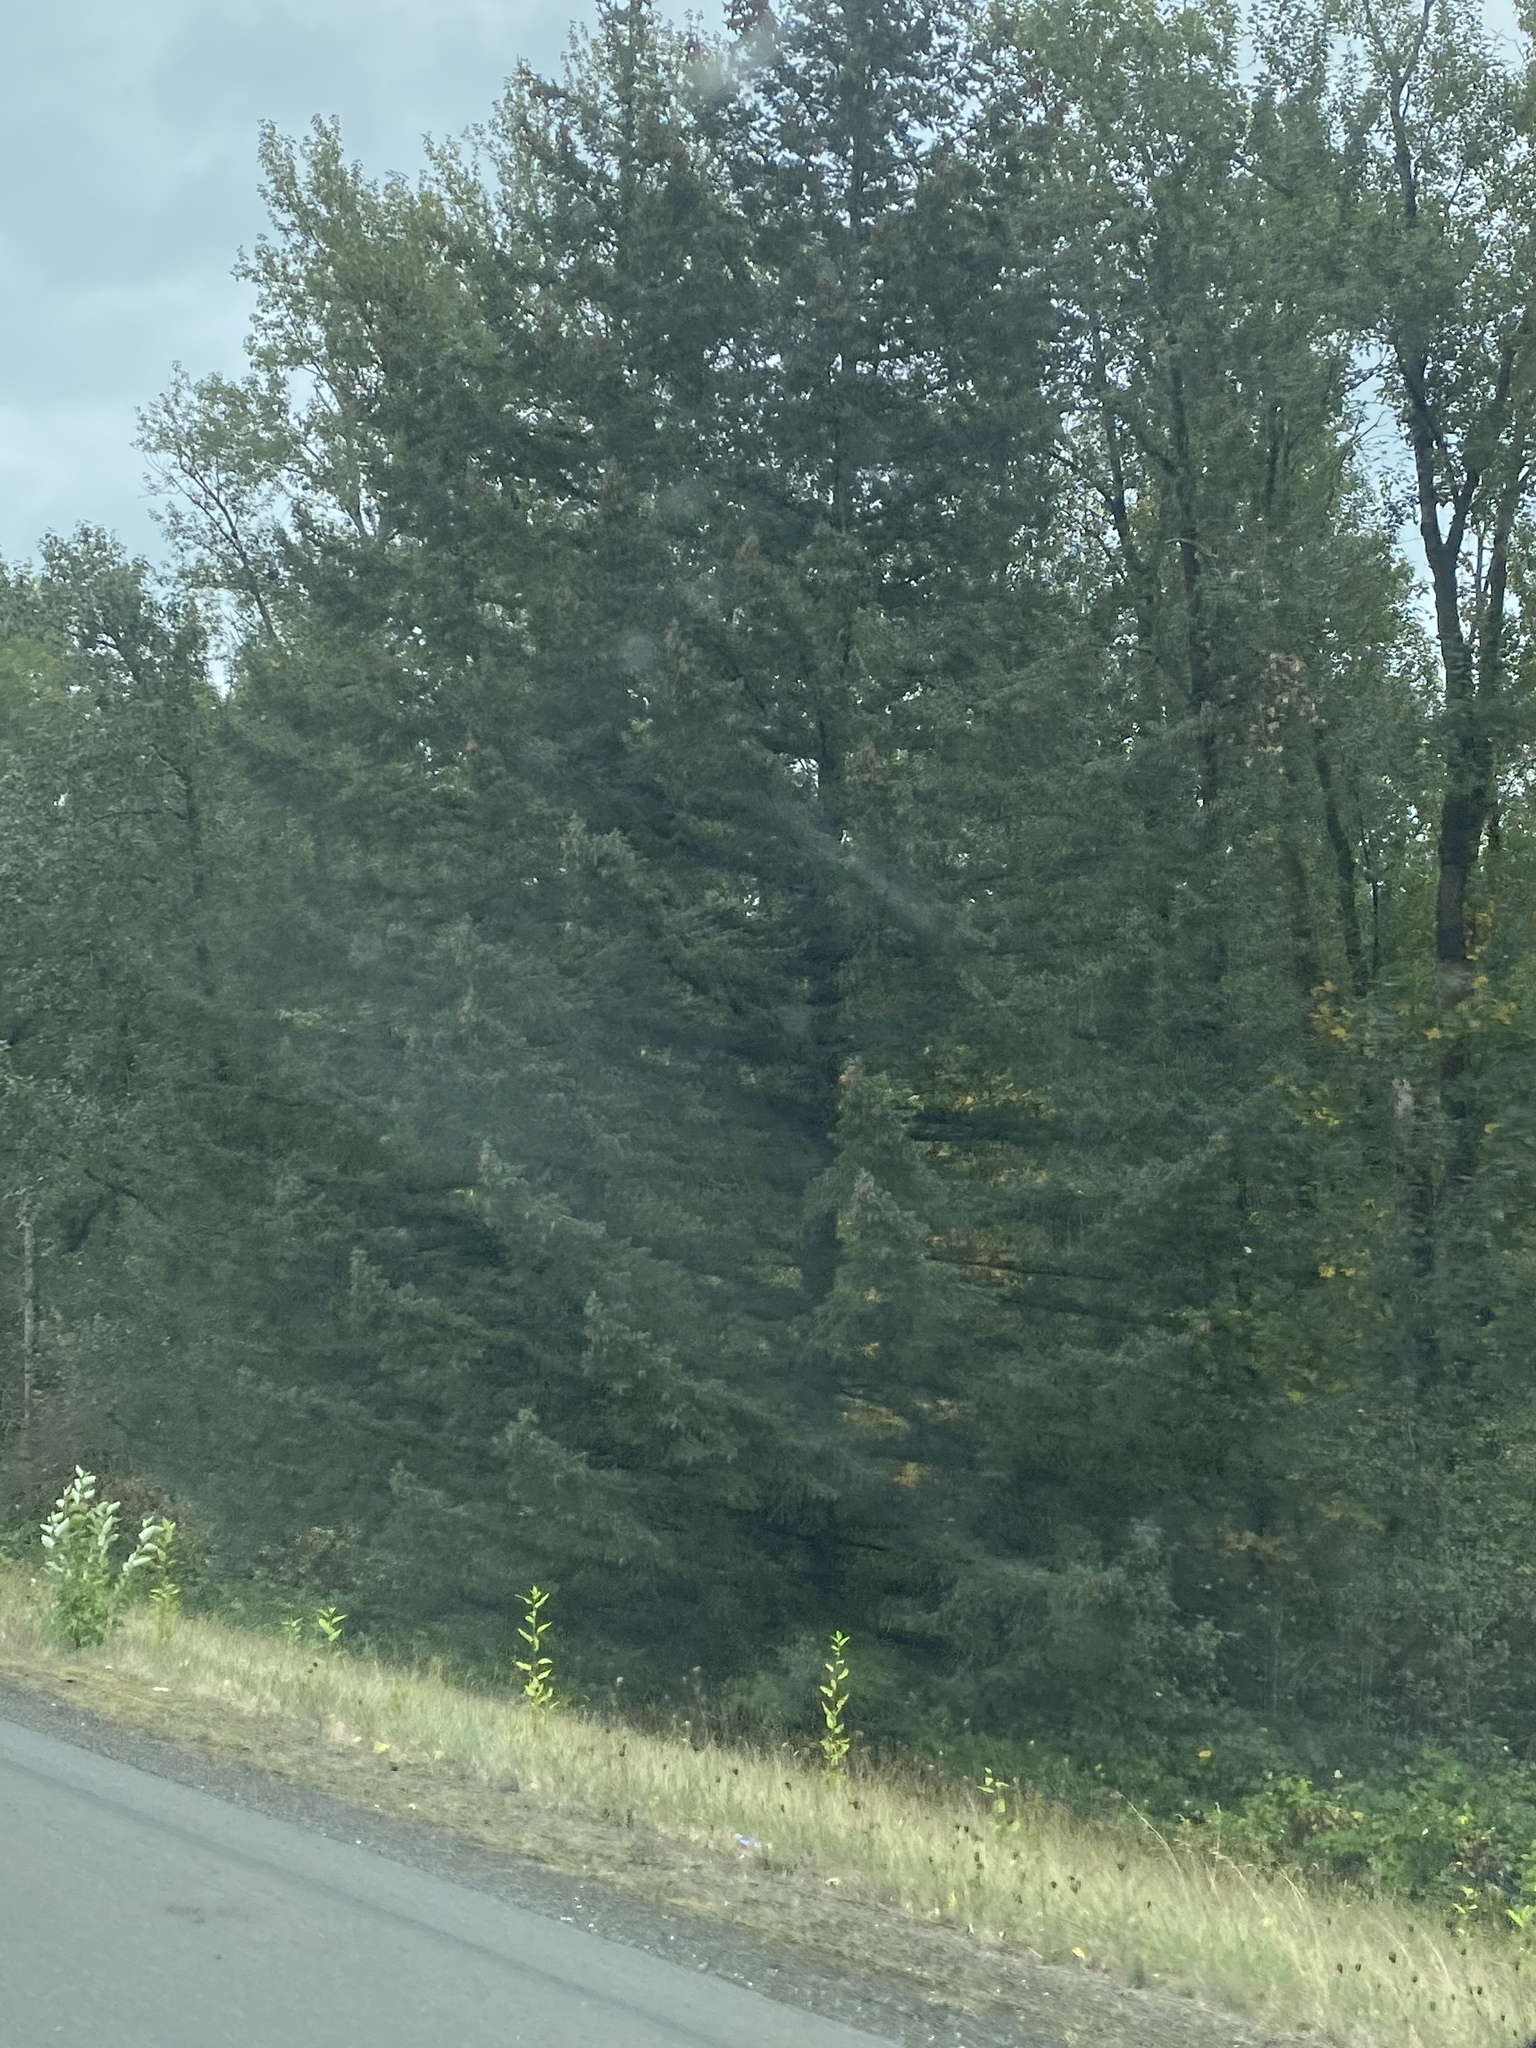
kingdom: Plantae
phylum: Tracheophyta
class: Pinopsida
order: Pinales
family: Pinaceae
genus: Pseudotsuga
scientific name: Pseudotsuga menziesii
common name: Douglas fir
